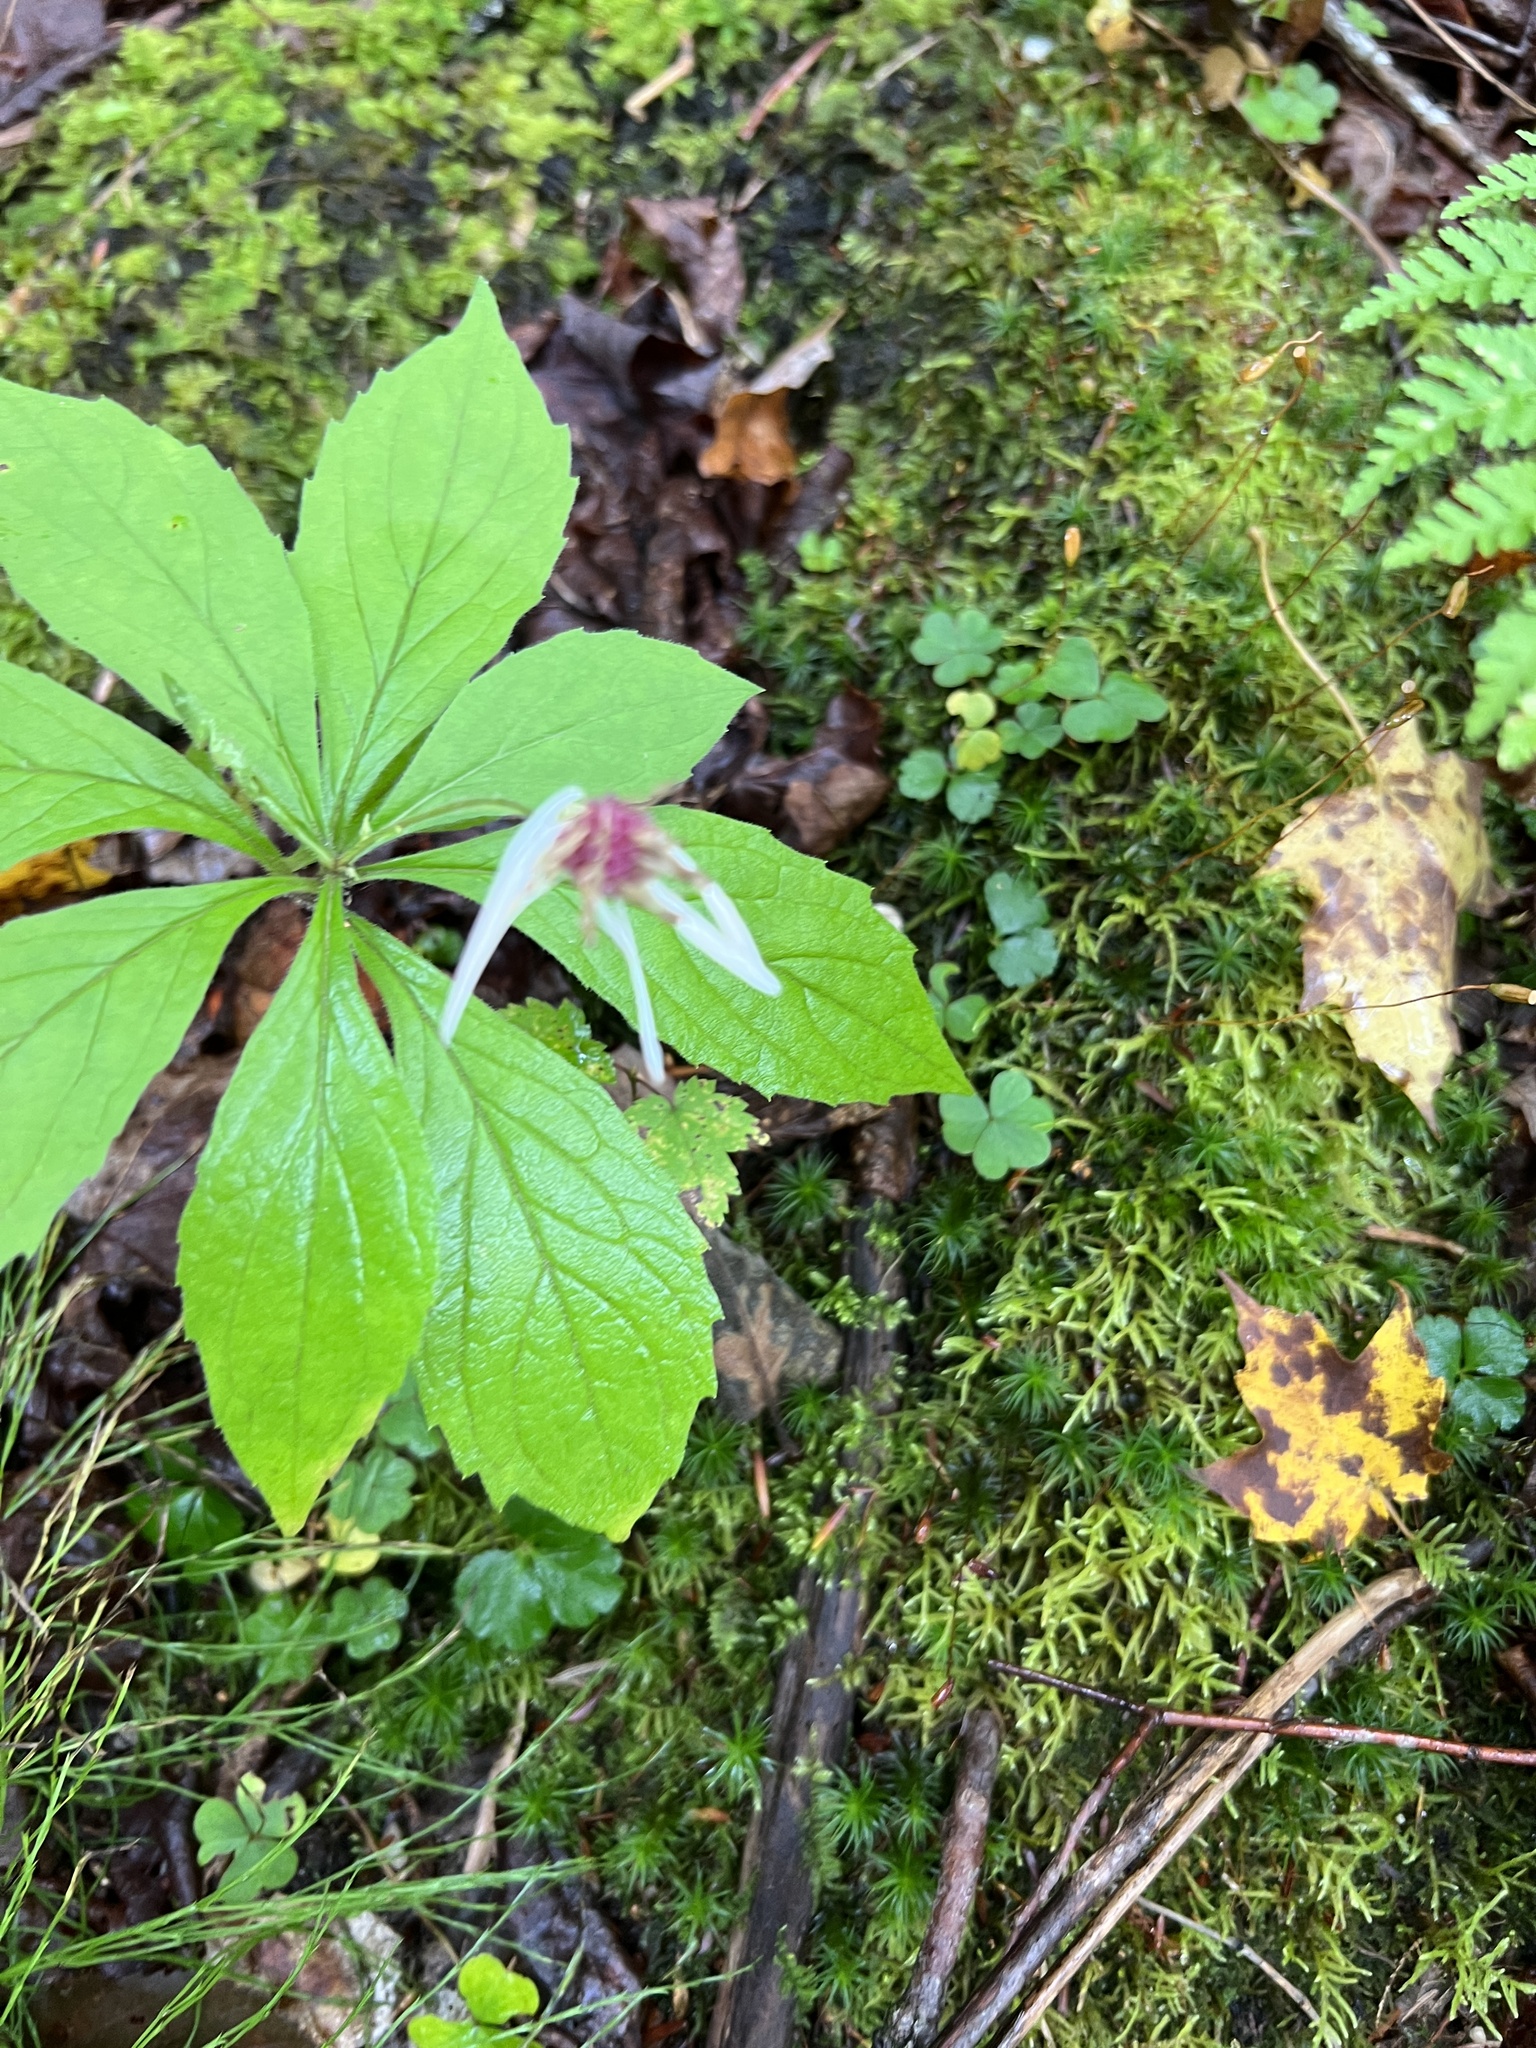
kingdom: Plantae
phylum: Tracheophyta
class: Magnoliopsida
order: Asterales
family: Asteraceae
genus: Oclemena
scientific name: Oclemena acuminata
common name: Mountain aster
